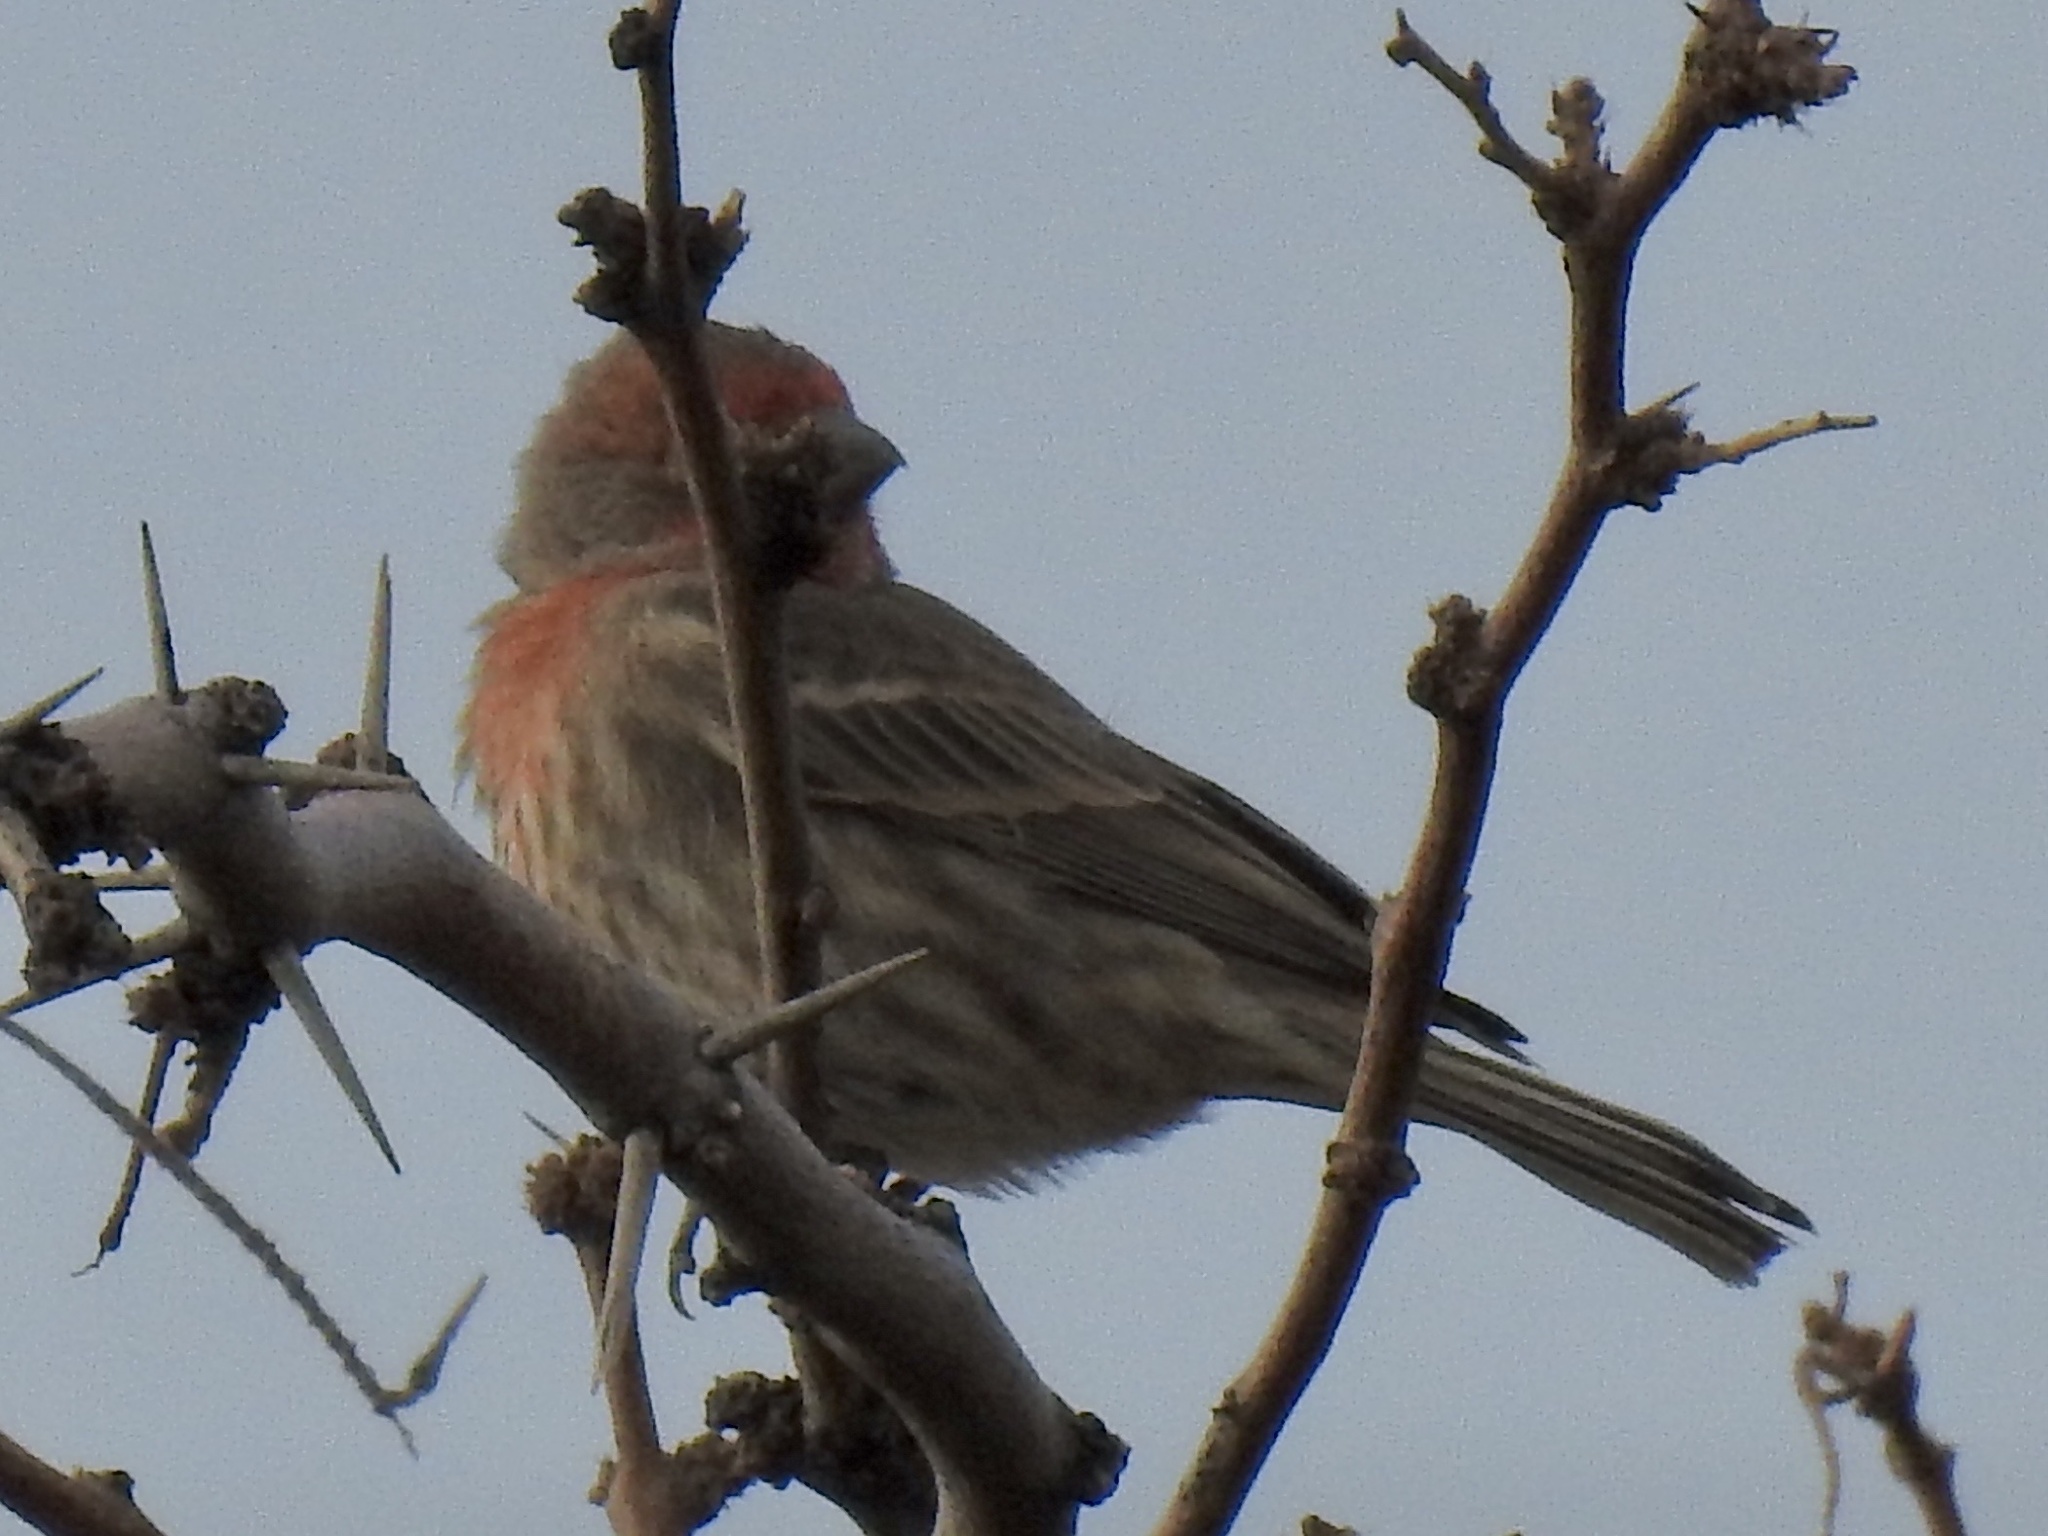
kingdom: Animalia
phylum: Chordata
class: Aves
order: Passeriformes
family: Fringillidae
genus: Haemorhous
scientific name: Haemorhous mexicanus
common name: House finch
